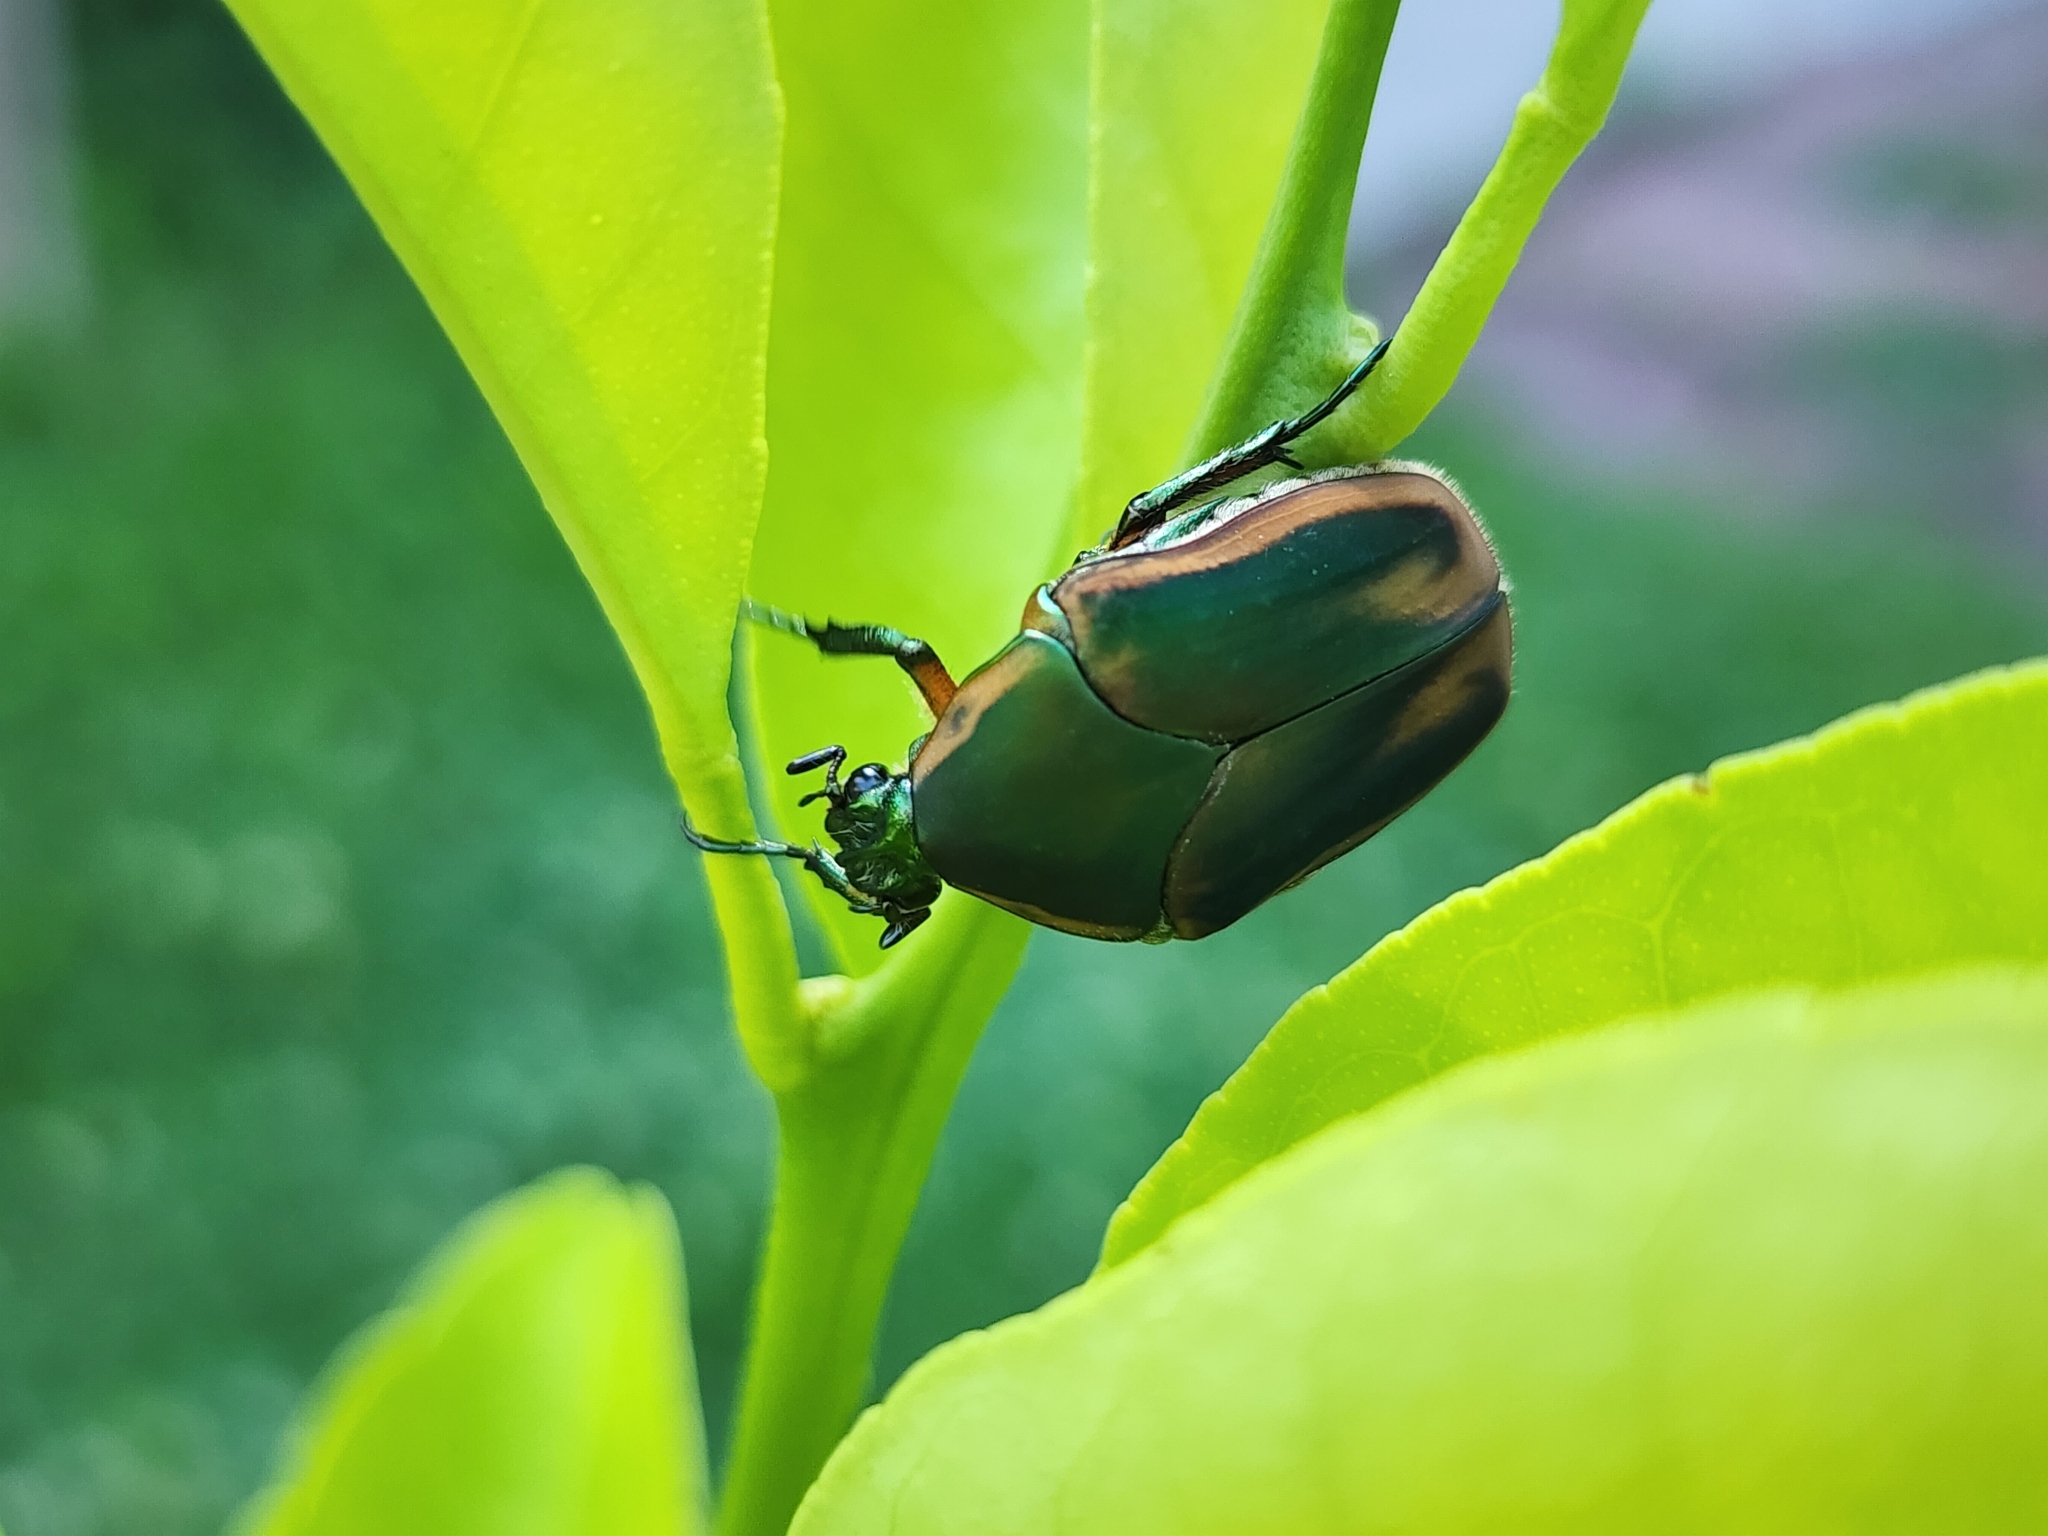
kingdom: Animalia
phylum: Arthropoda
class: Insecta
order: Coleoptera
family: Scarabaeidae
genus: Cotinis
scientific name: Cotinis nitida
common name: Common green june beetle
